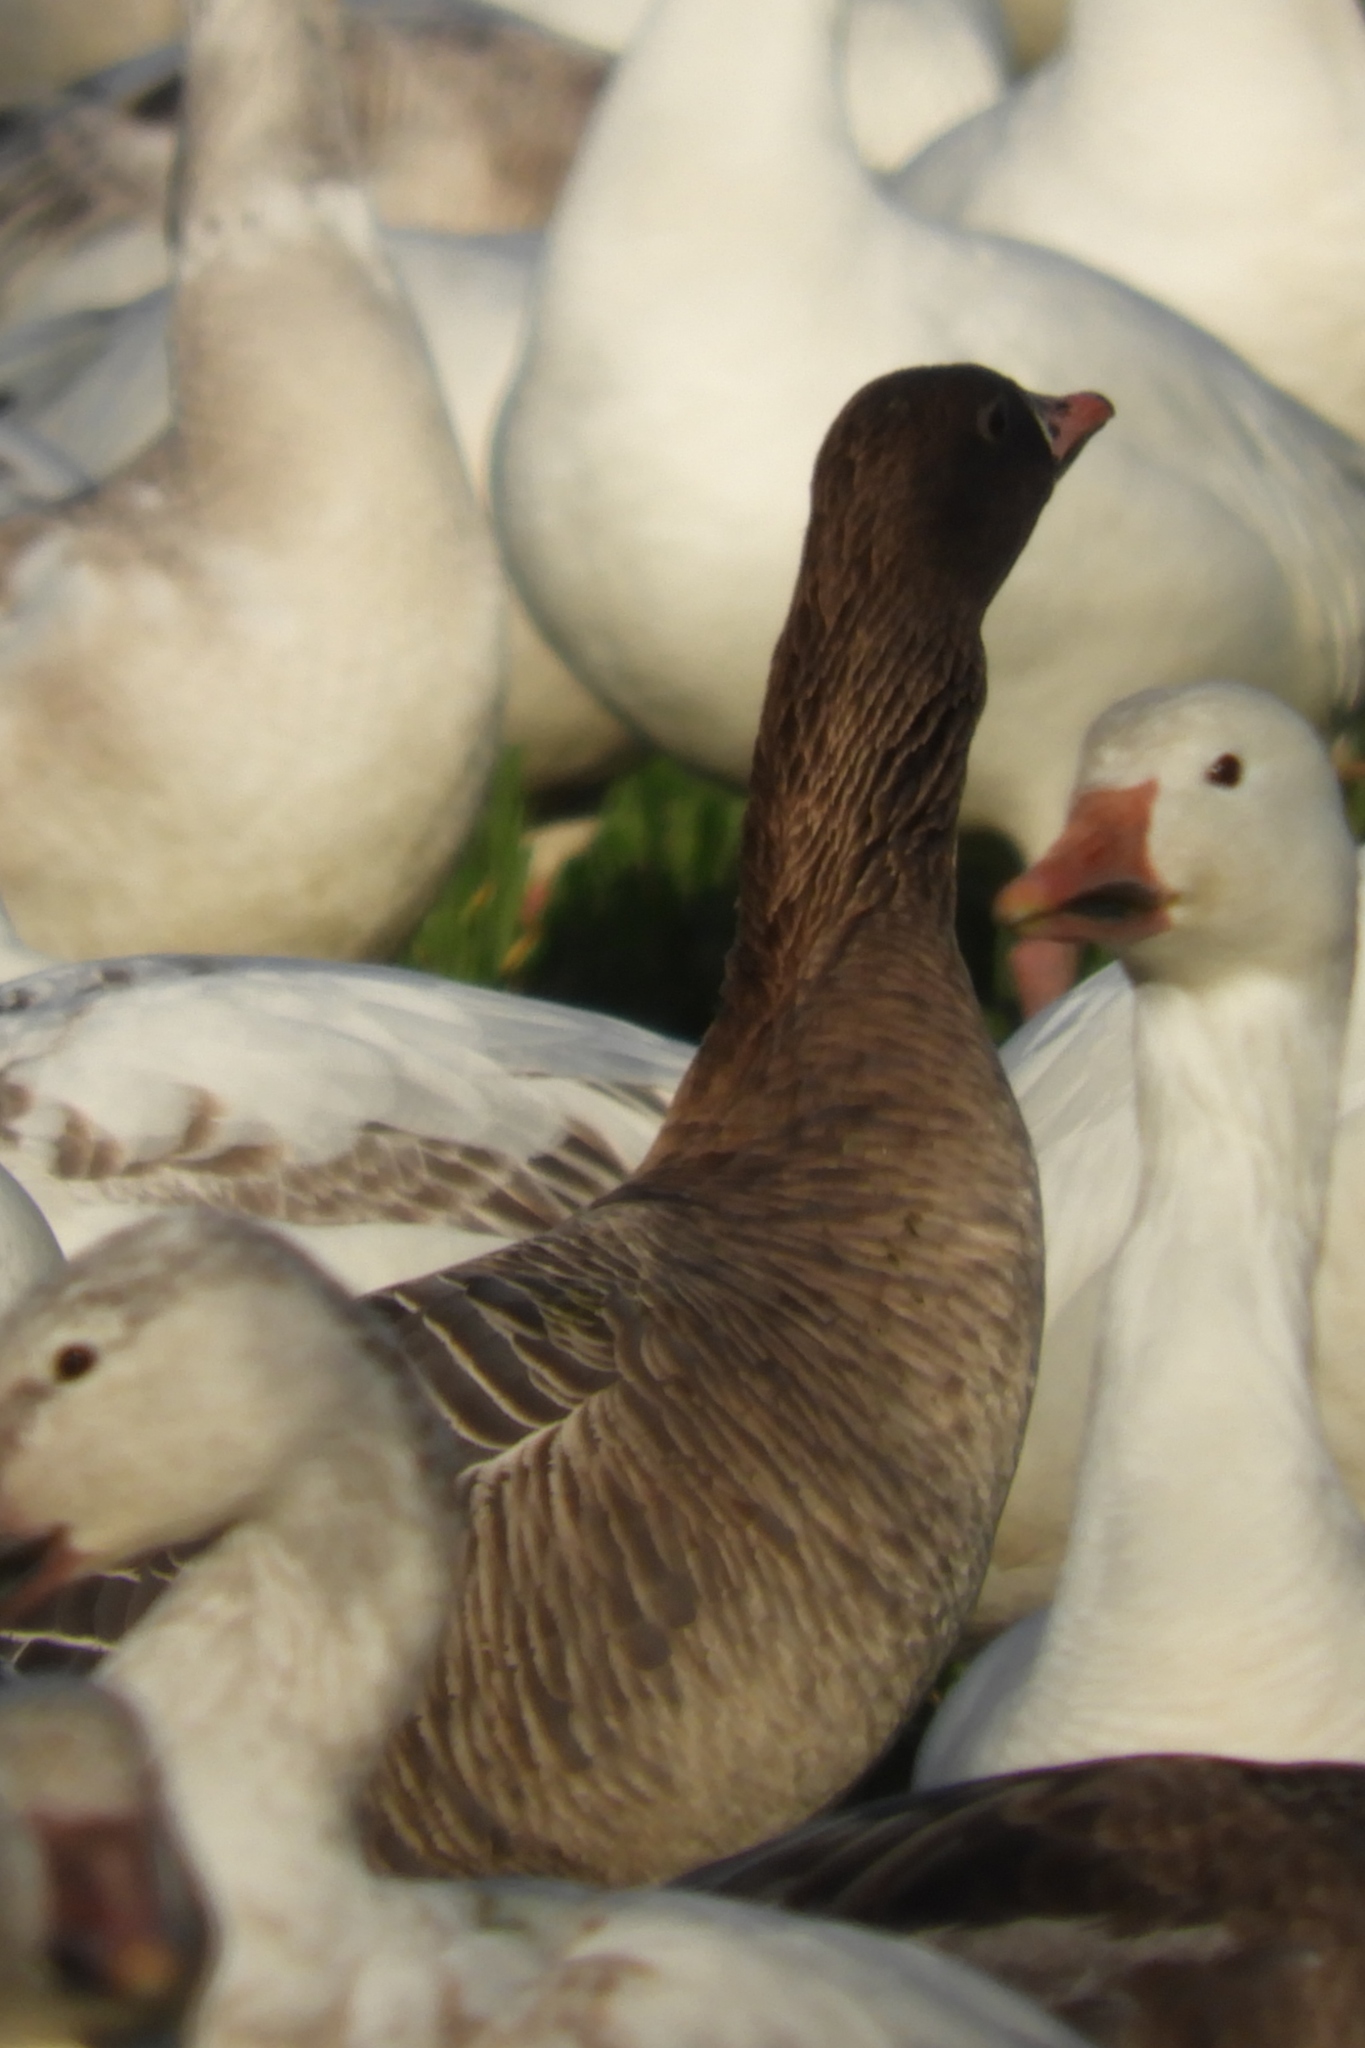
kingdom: Animalia
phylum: Chordata
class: Aves
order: Anseriformes
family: Anatidae
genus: Anser
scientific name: Anser brachyrhynchus
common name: Pink-footed goose
